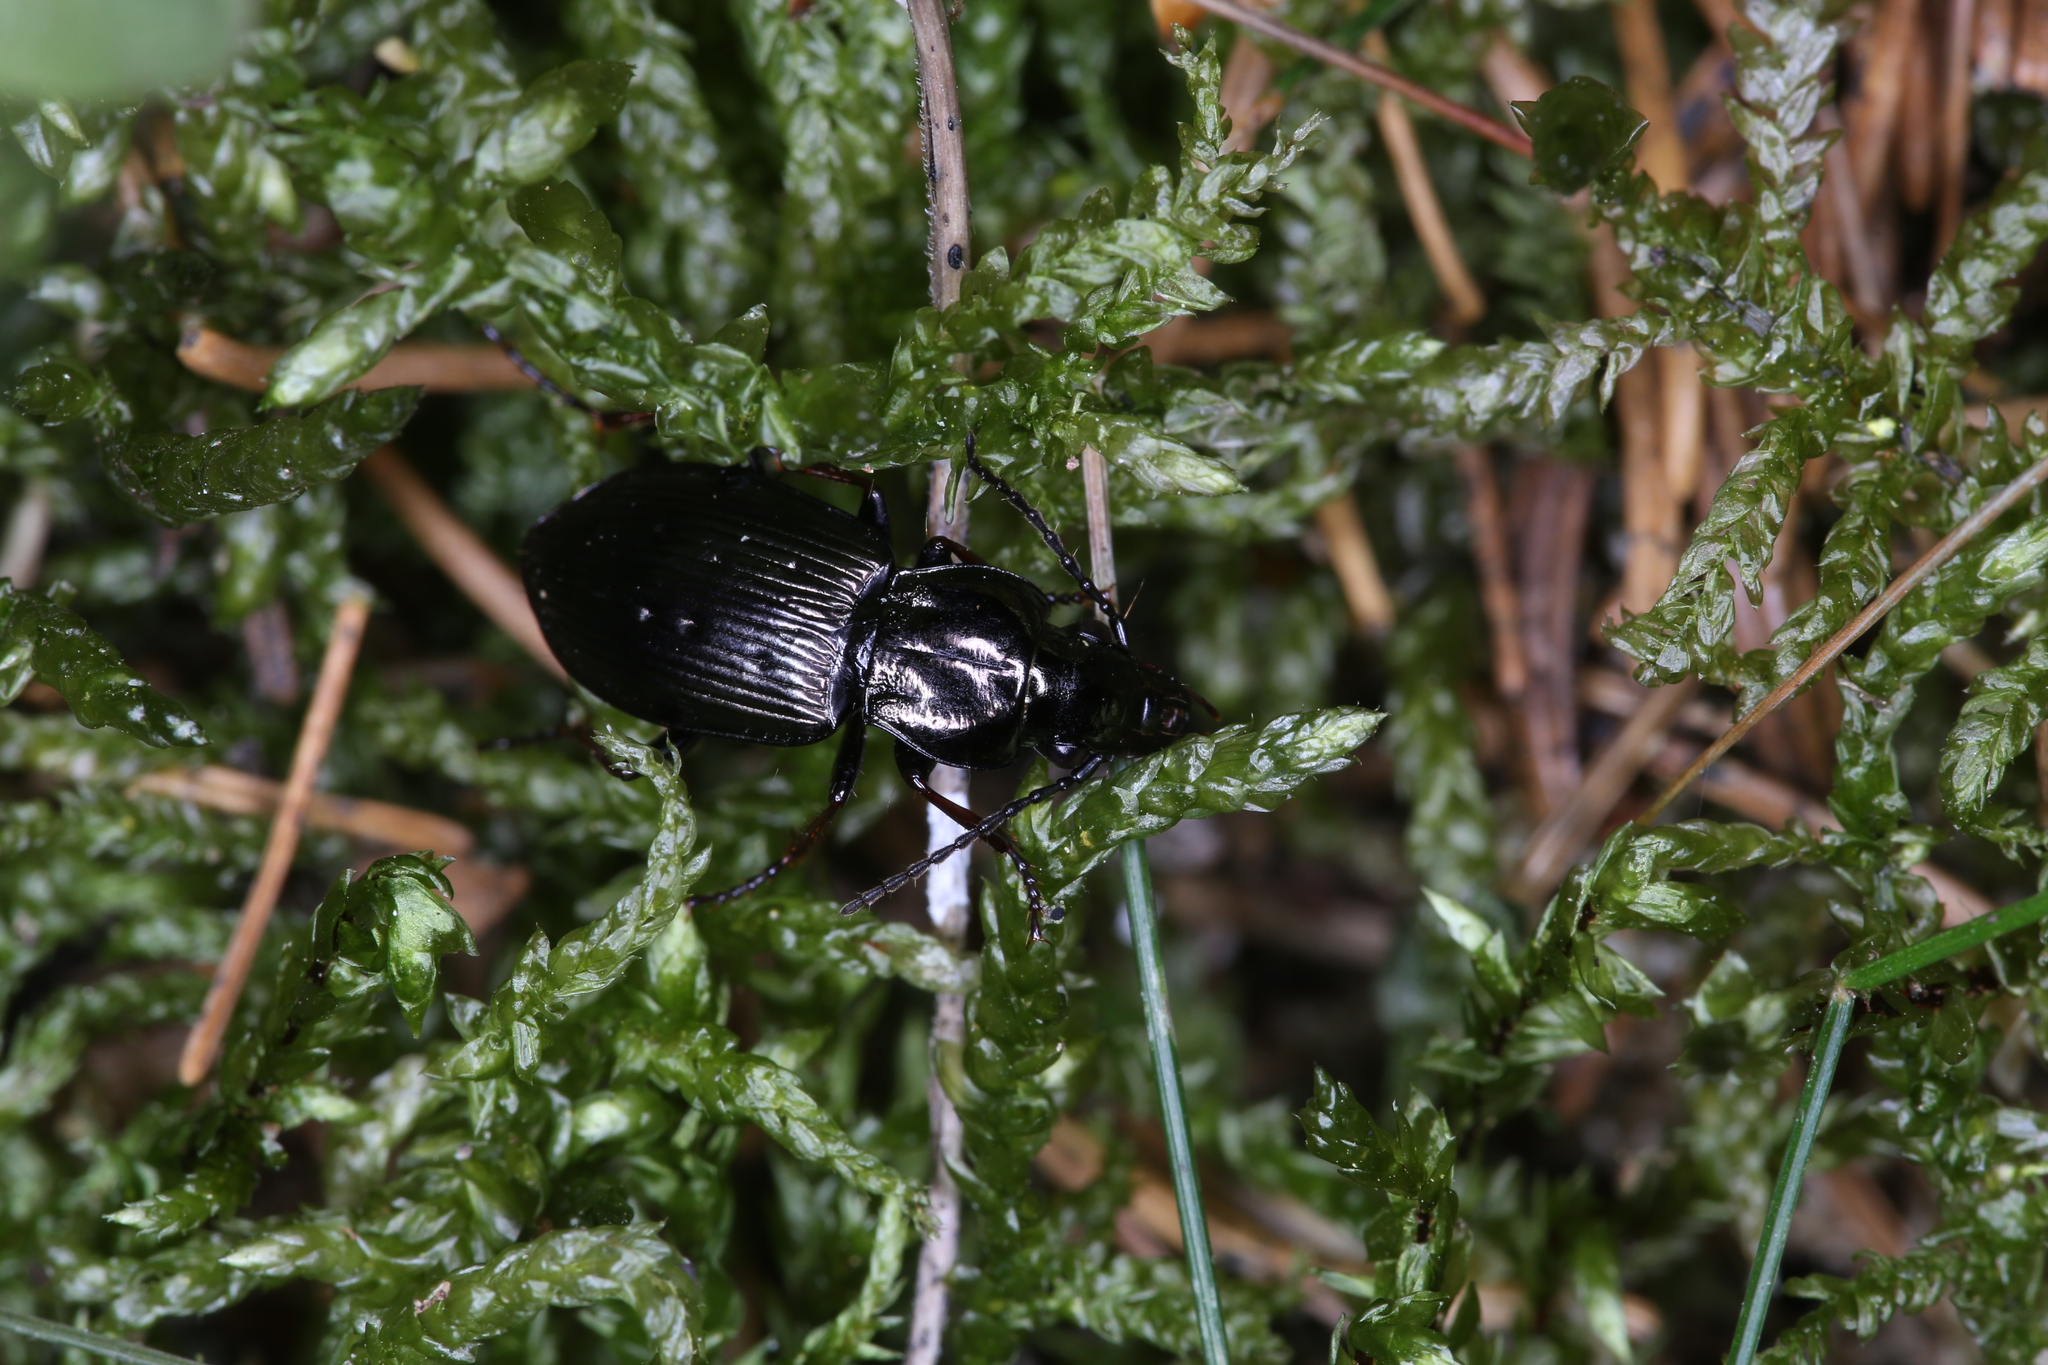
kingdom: Animalia
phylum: Arthropoda
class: Insecta
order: Coleoptera
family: Carabidae
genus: Pterostichus
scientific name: Pterostichus oblongopunctatus
